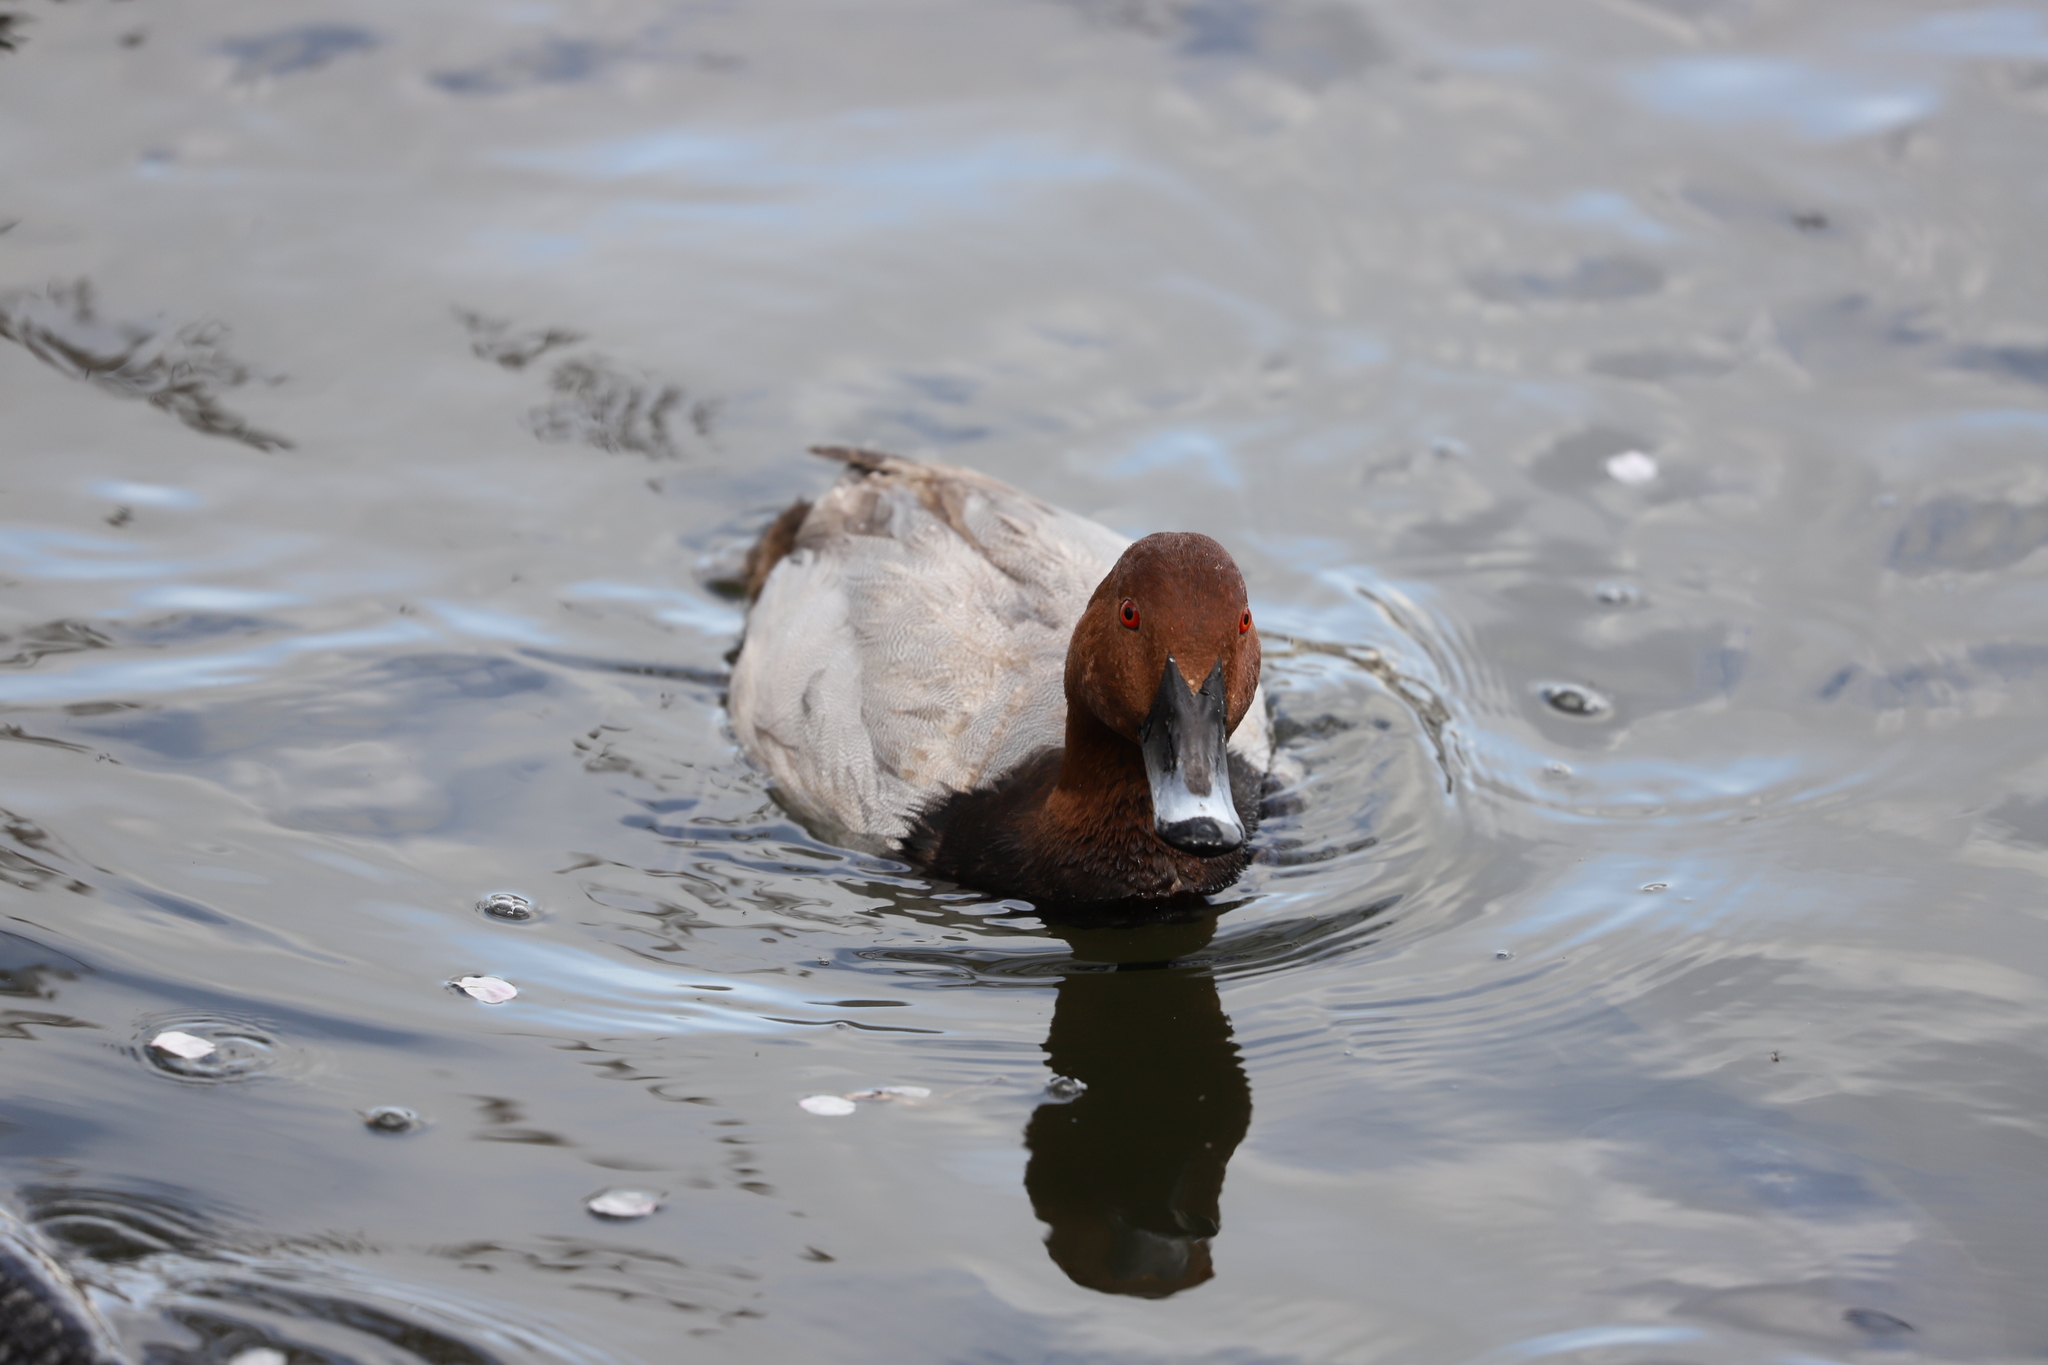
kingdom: Animalia
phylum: Chordata
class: Aves
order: Anseriformes
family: Anatidae
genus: Aythya
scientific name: Aythya ferina
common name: Common pochard
